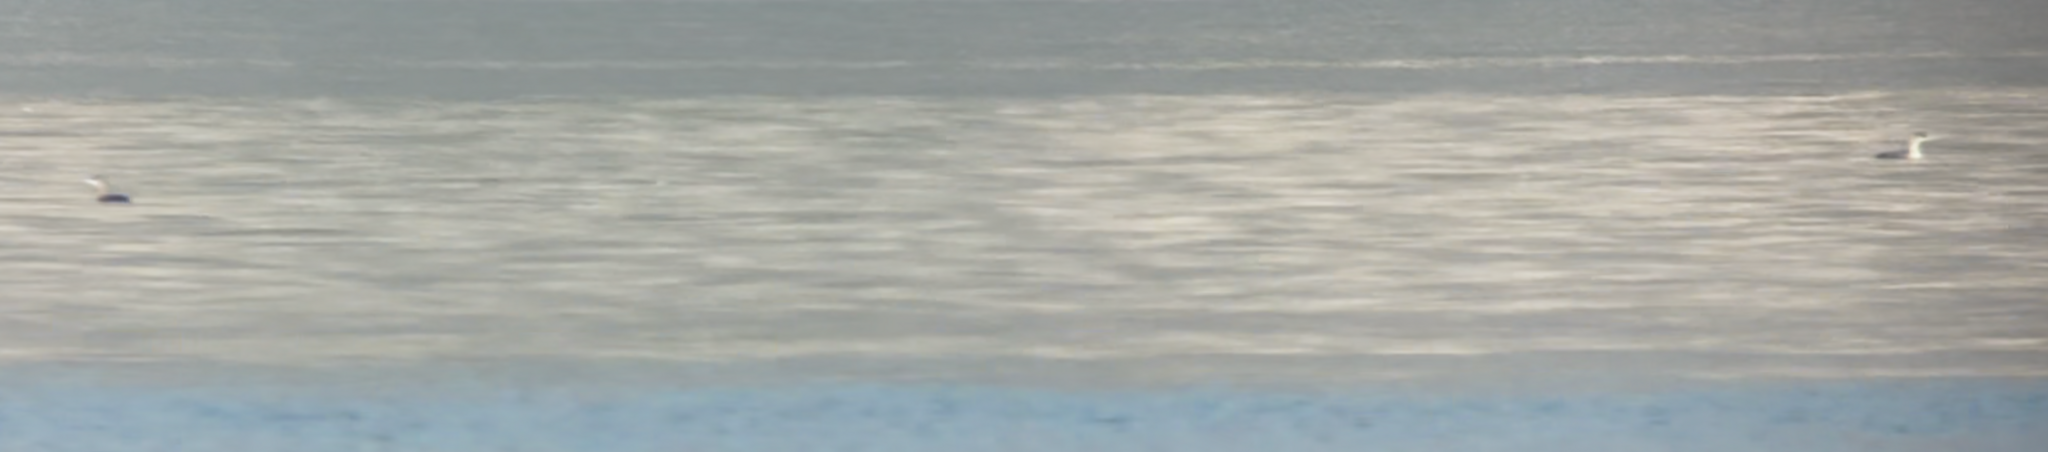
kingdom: Animalia
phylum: Chordata
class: Aves
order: Gaviiformes
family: Gaviidae
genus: Gavia
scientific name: Gavia arctica
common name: Black-throated loon
